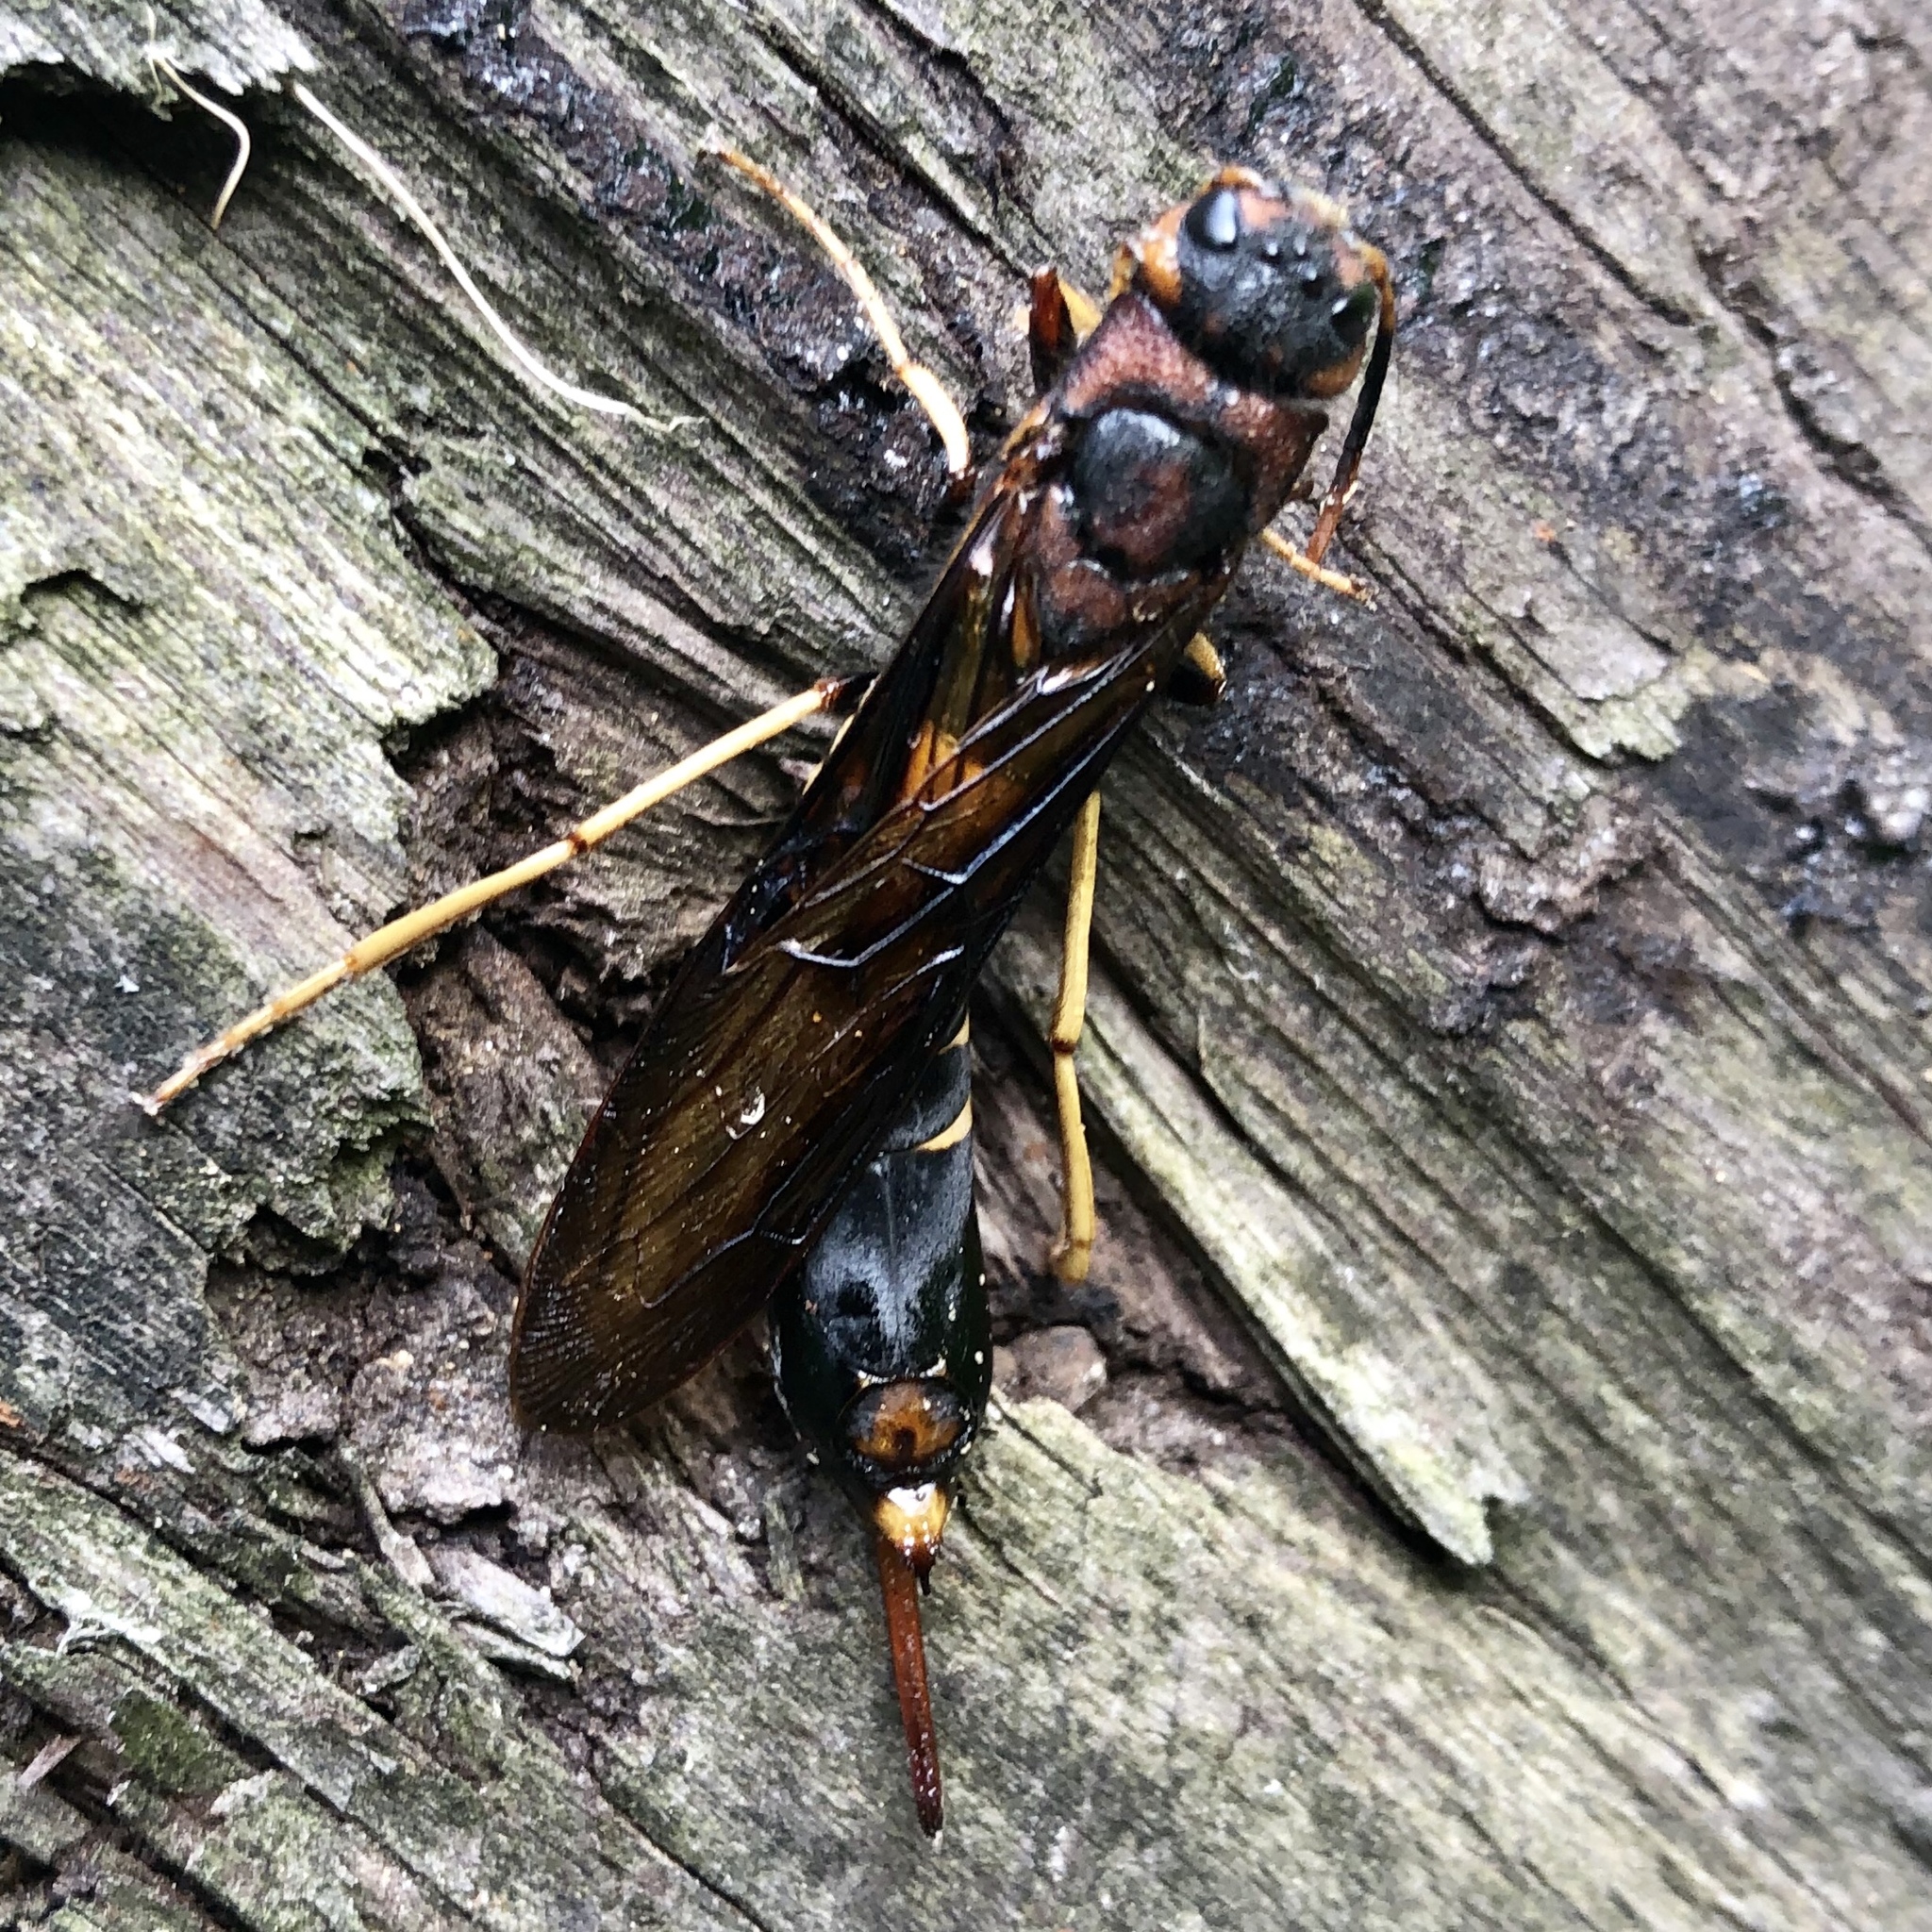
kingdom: Animalia
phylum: Arthropoda
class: Insecta
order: Hymenoptera
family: Siricidae
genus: Tremex
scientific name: Tremex columba
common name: Wasp
